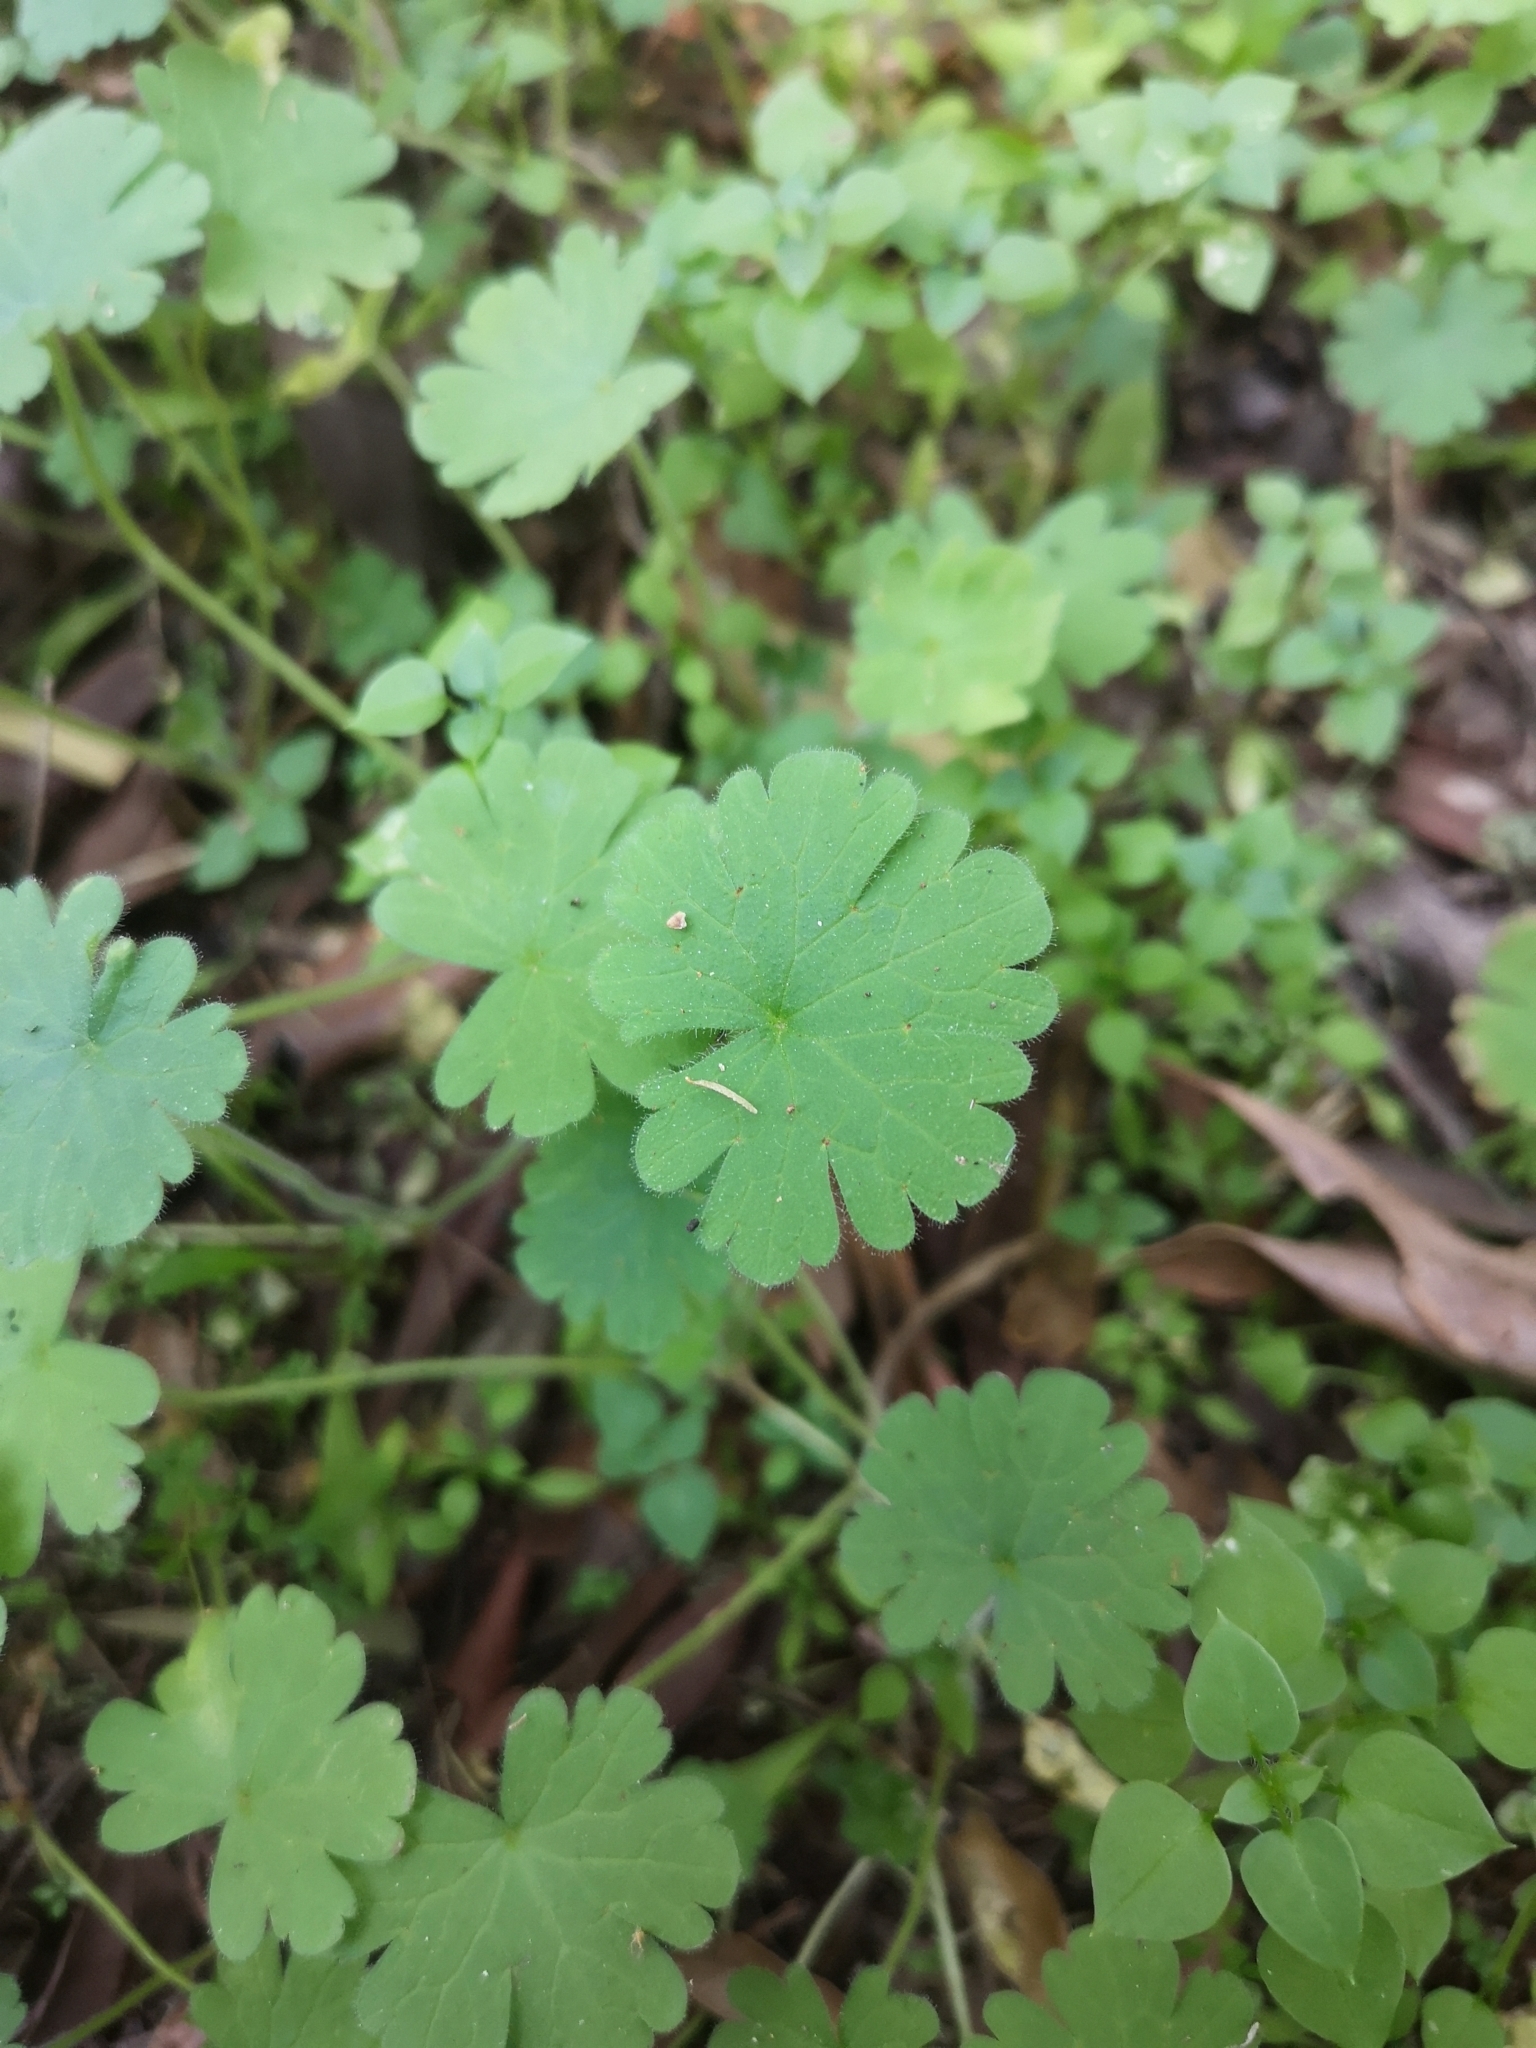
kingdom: Plantae
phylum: Tracheophyta
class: Magnoliopsida
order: Geraniales
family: Geraniaceae
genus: Geranium
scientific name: Geranium molle
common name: Dove's-foot crane's-bill
